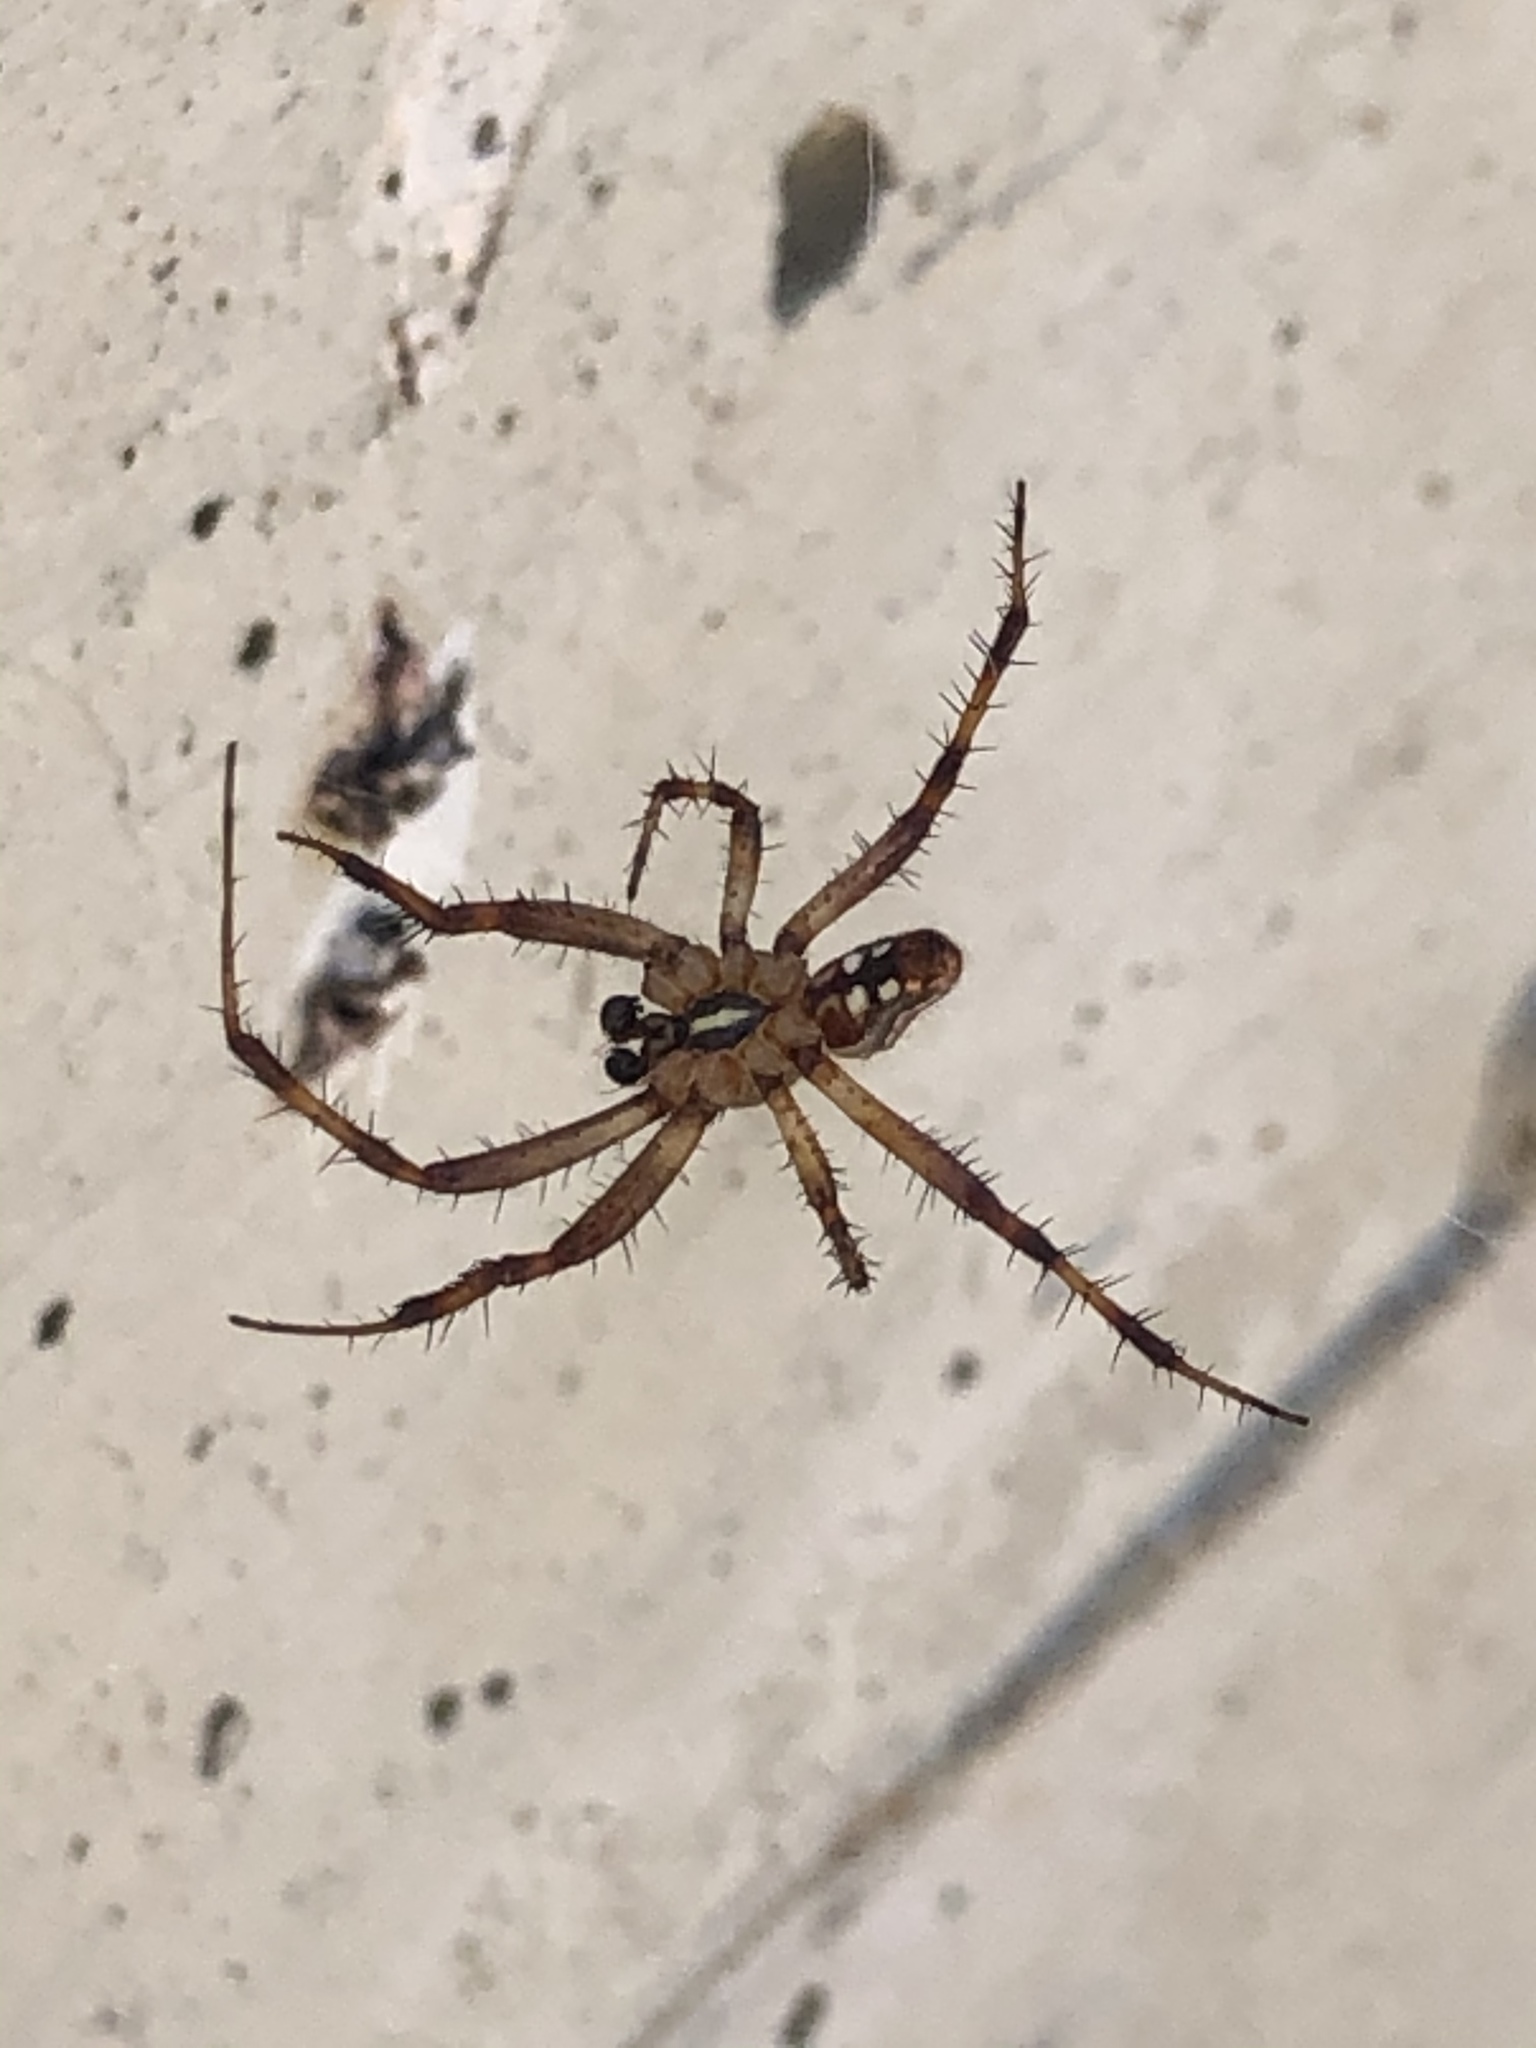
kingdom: Animalia
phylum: Arthropoda
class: Arachnida
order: Araneae
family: Araneidae
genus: Neoscona
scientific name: Neoscona oaxacensis
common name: Orb weavers
